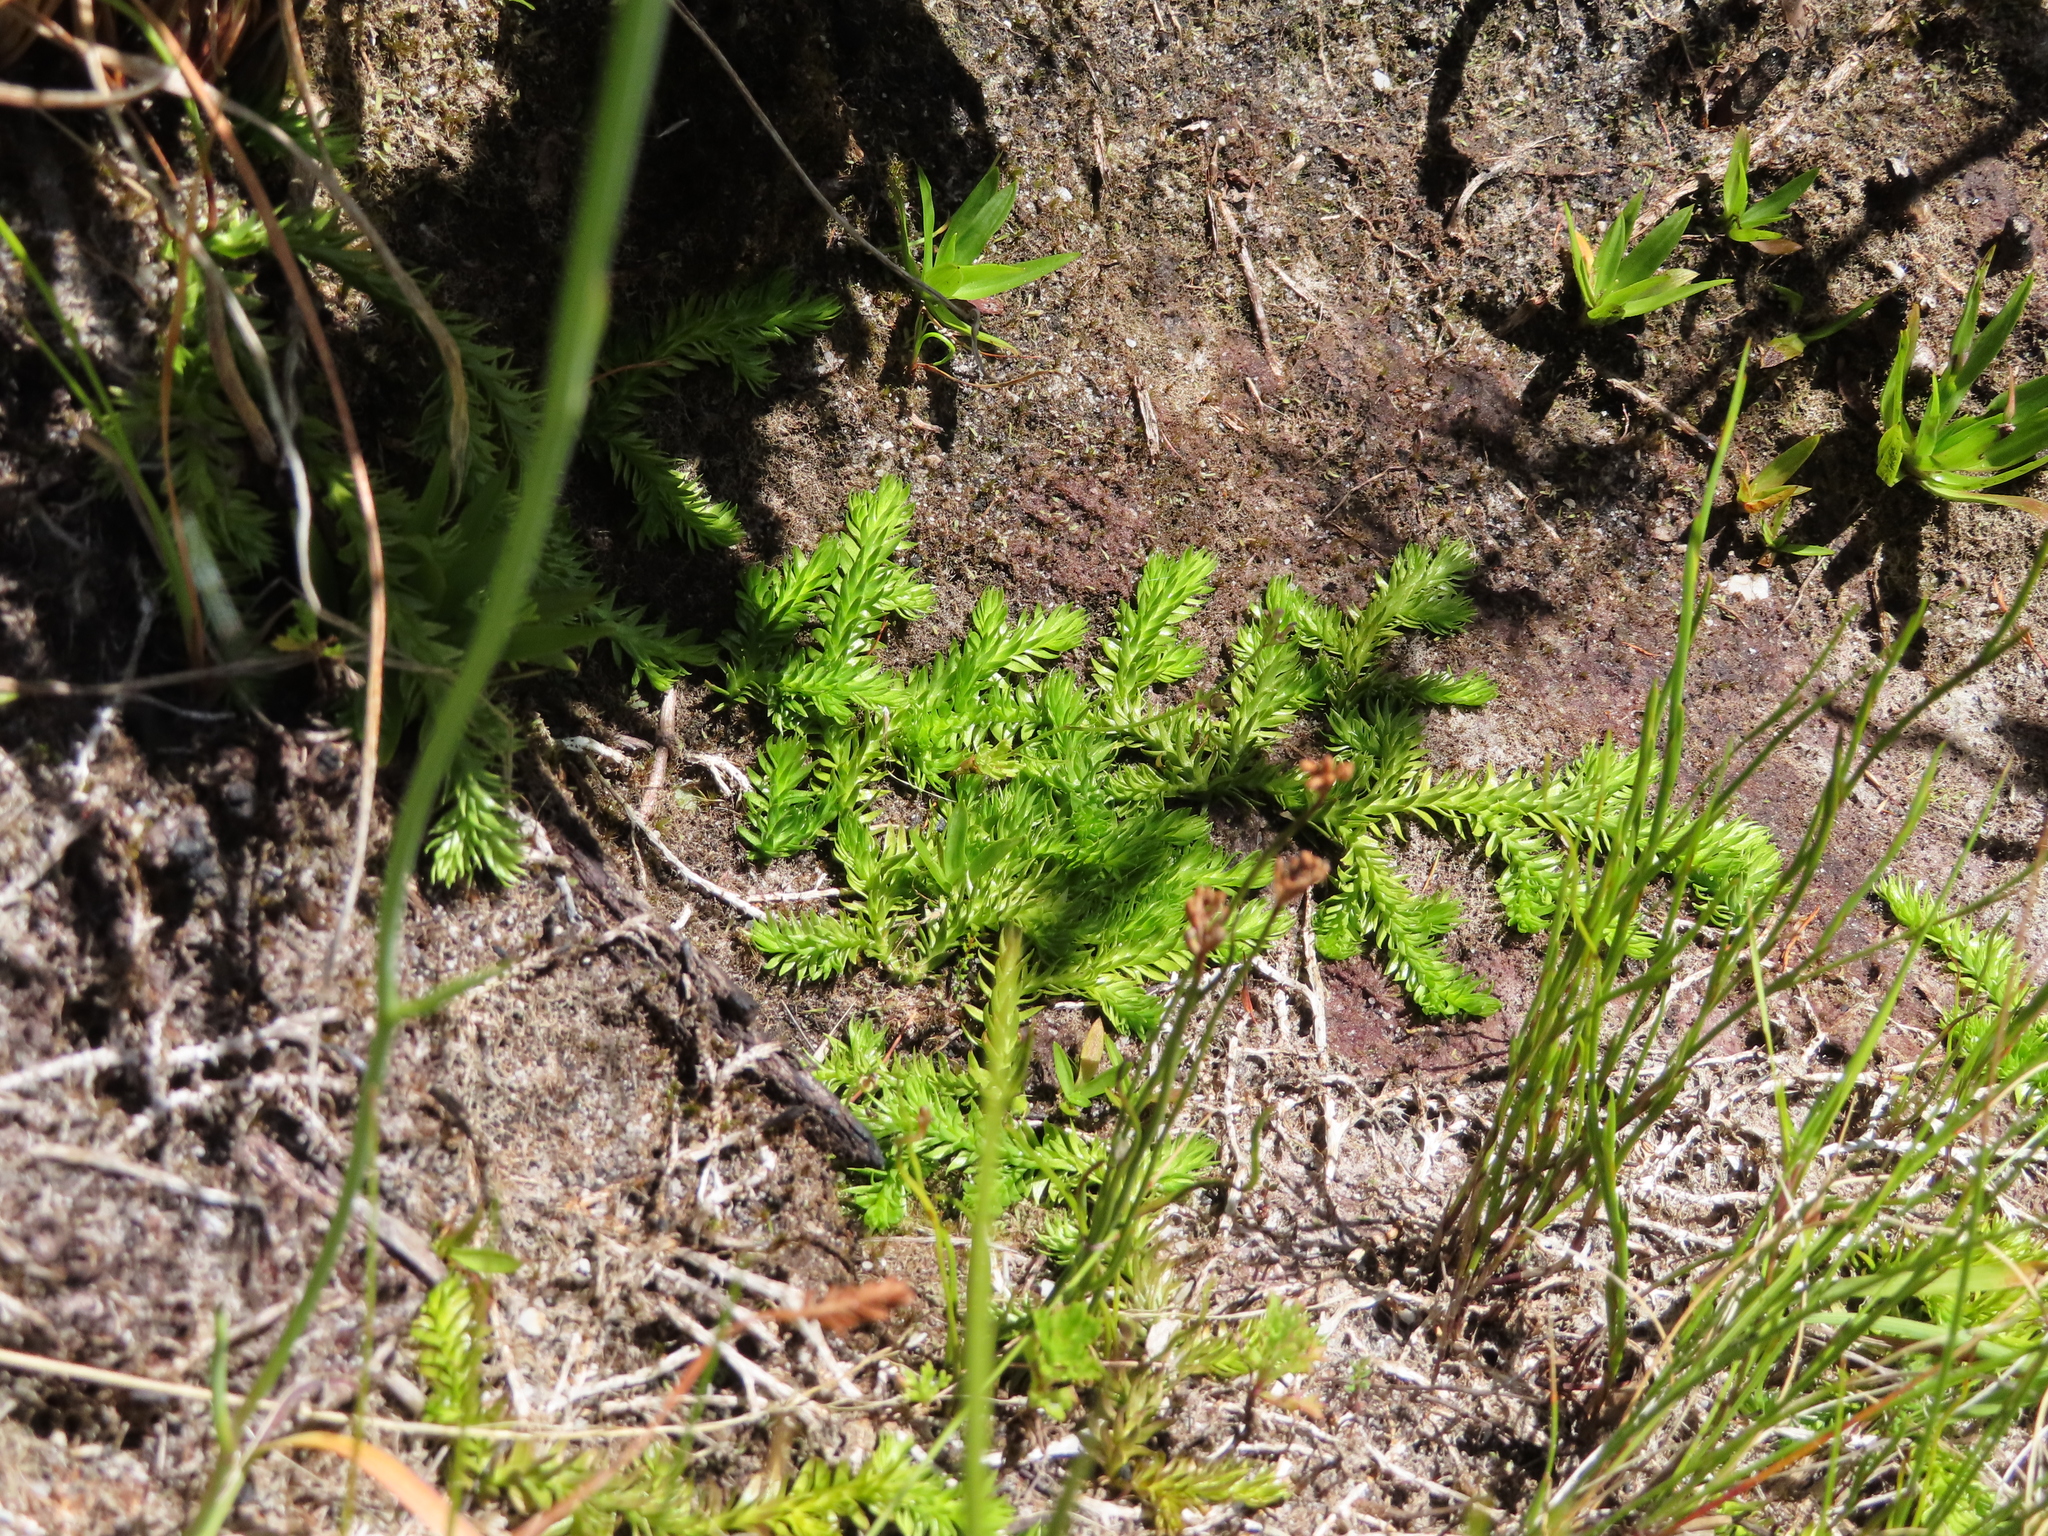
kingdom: Plantae
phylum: Tracheophyta
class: Lycopodiopsida
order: Lycopodiales
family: Lycopodiaceae
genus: Pseudolycopodiella
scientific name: Pseudolycopodiella caroliniana
